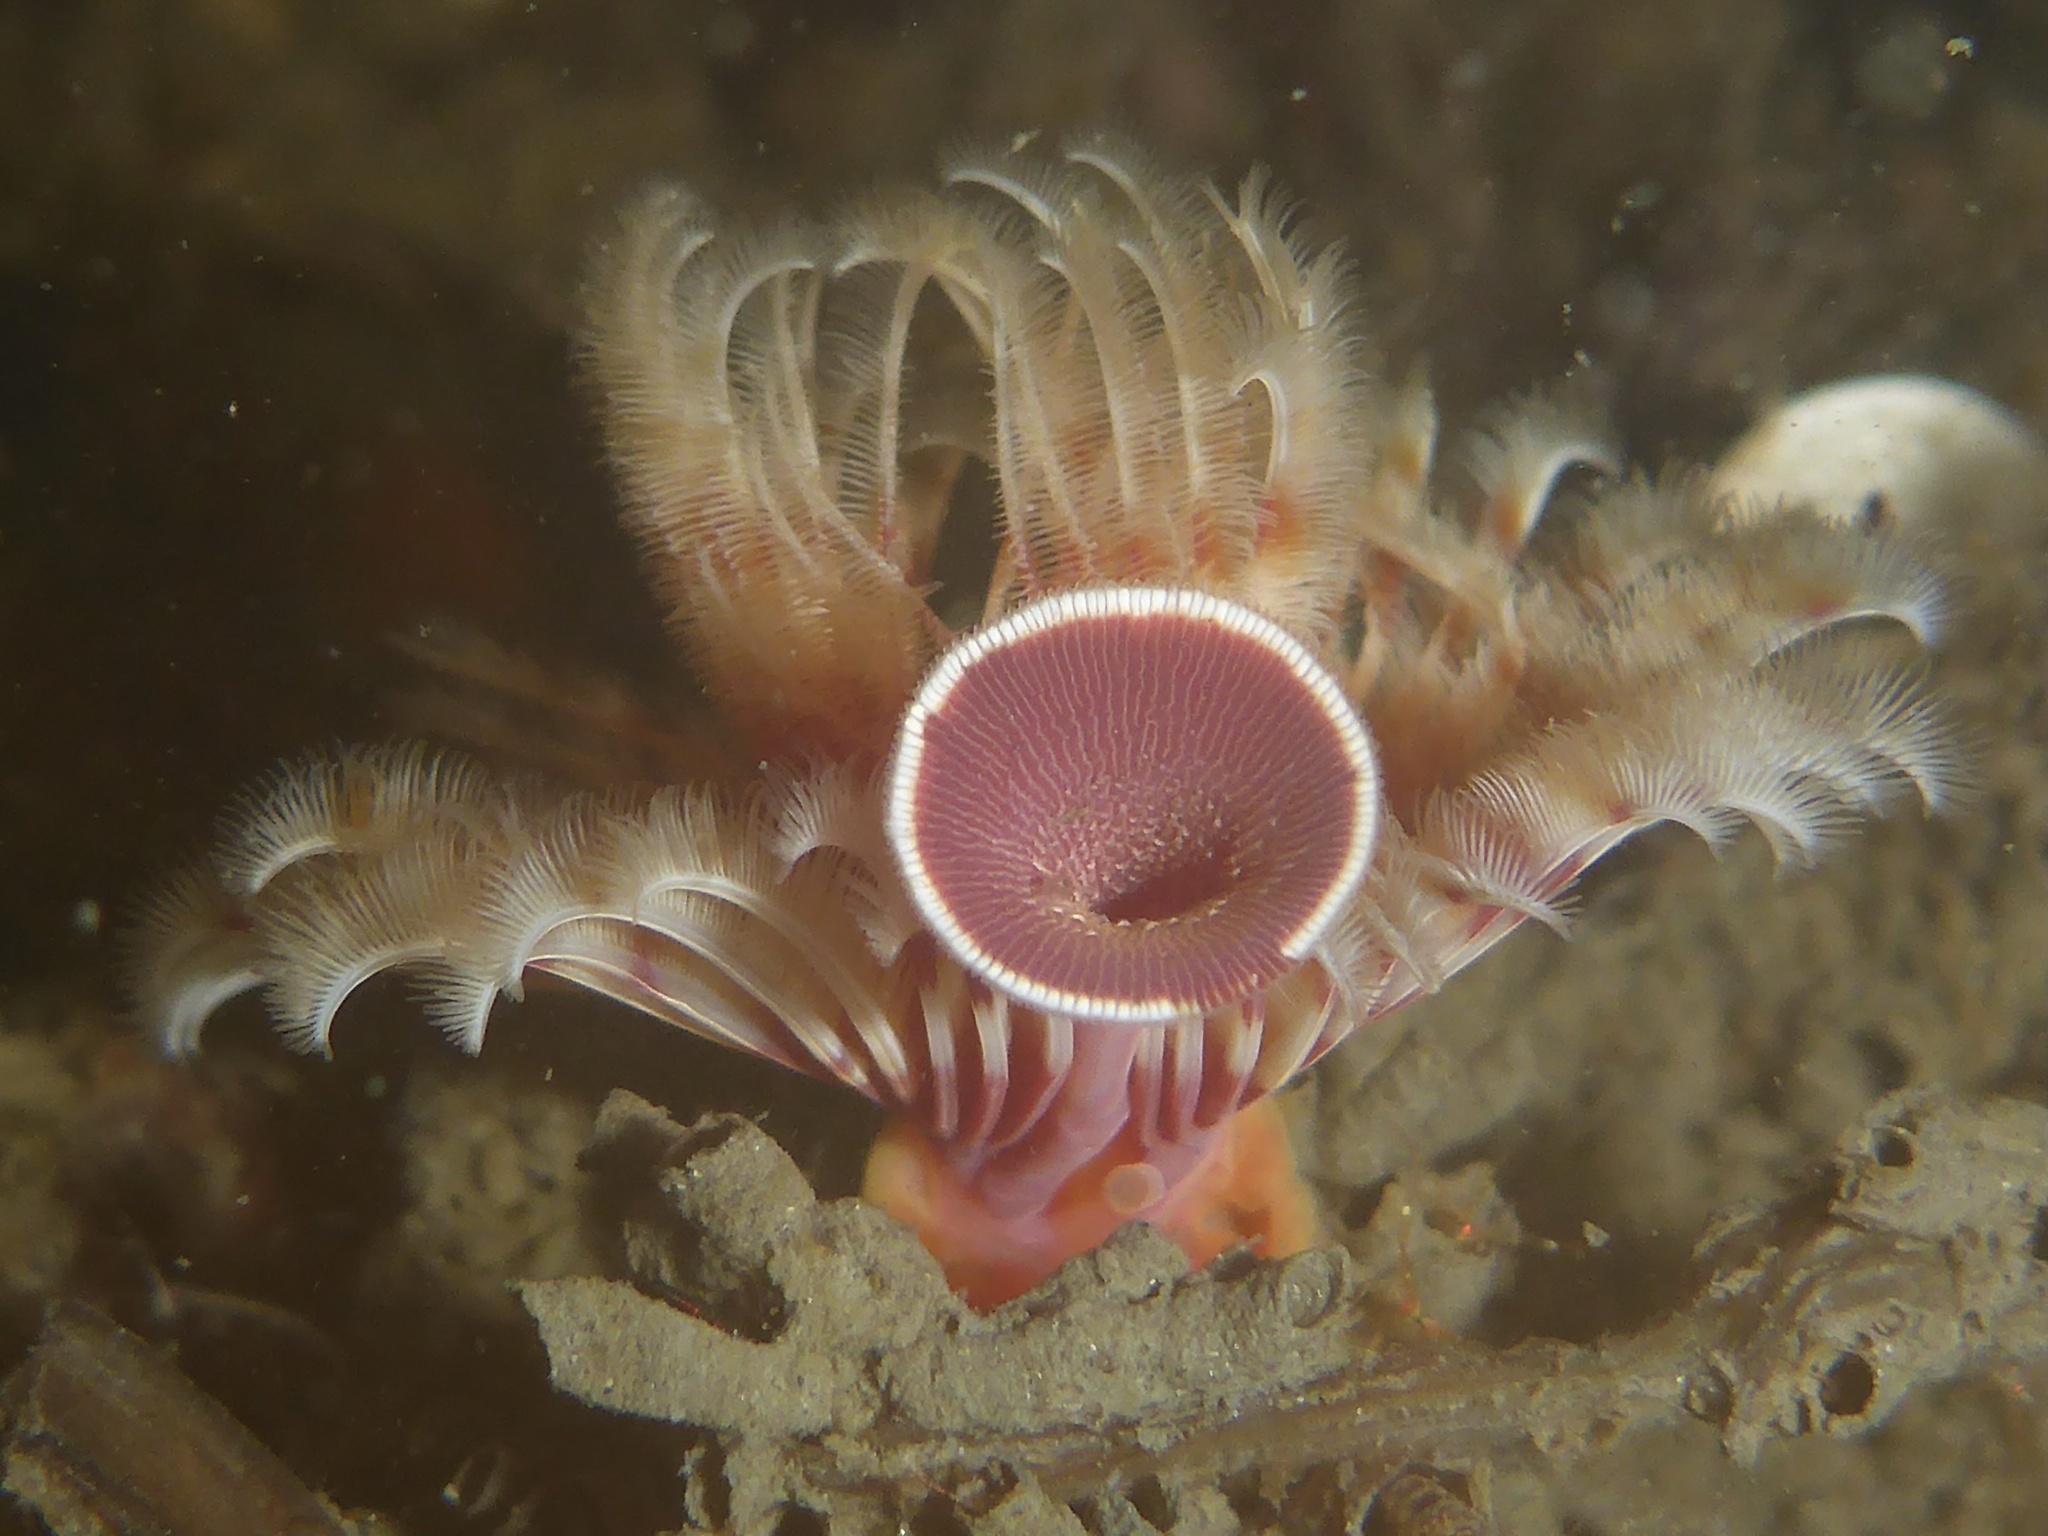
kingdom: Animalia
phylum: Annelida
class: Polychaeta
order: Sabellida
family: Serpulidae
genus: Serpula
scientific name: Serpula columbiana
